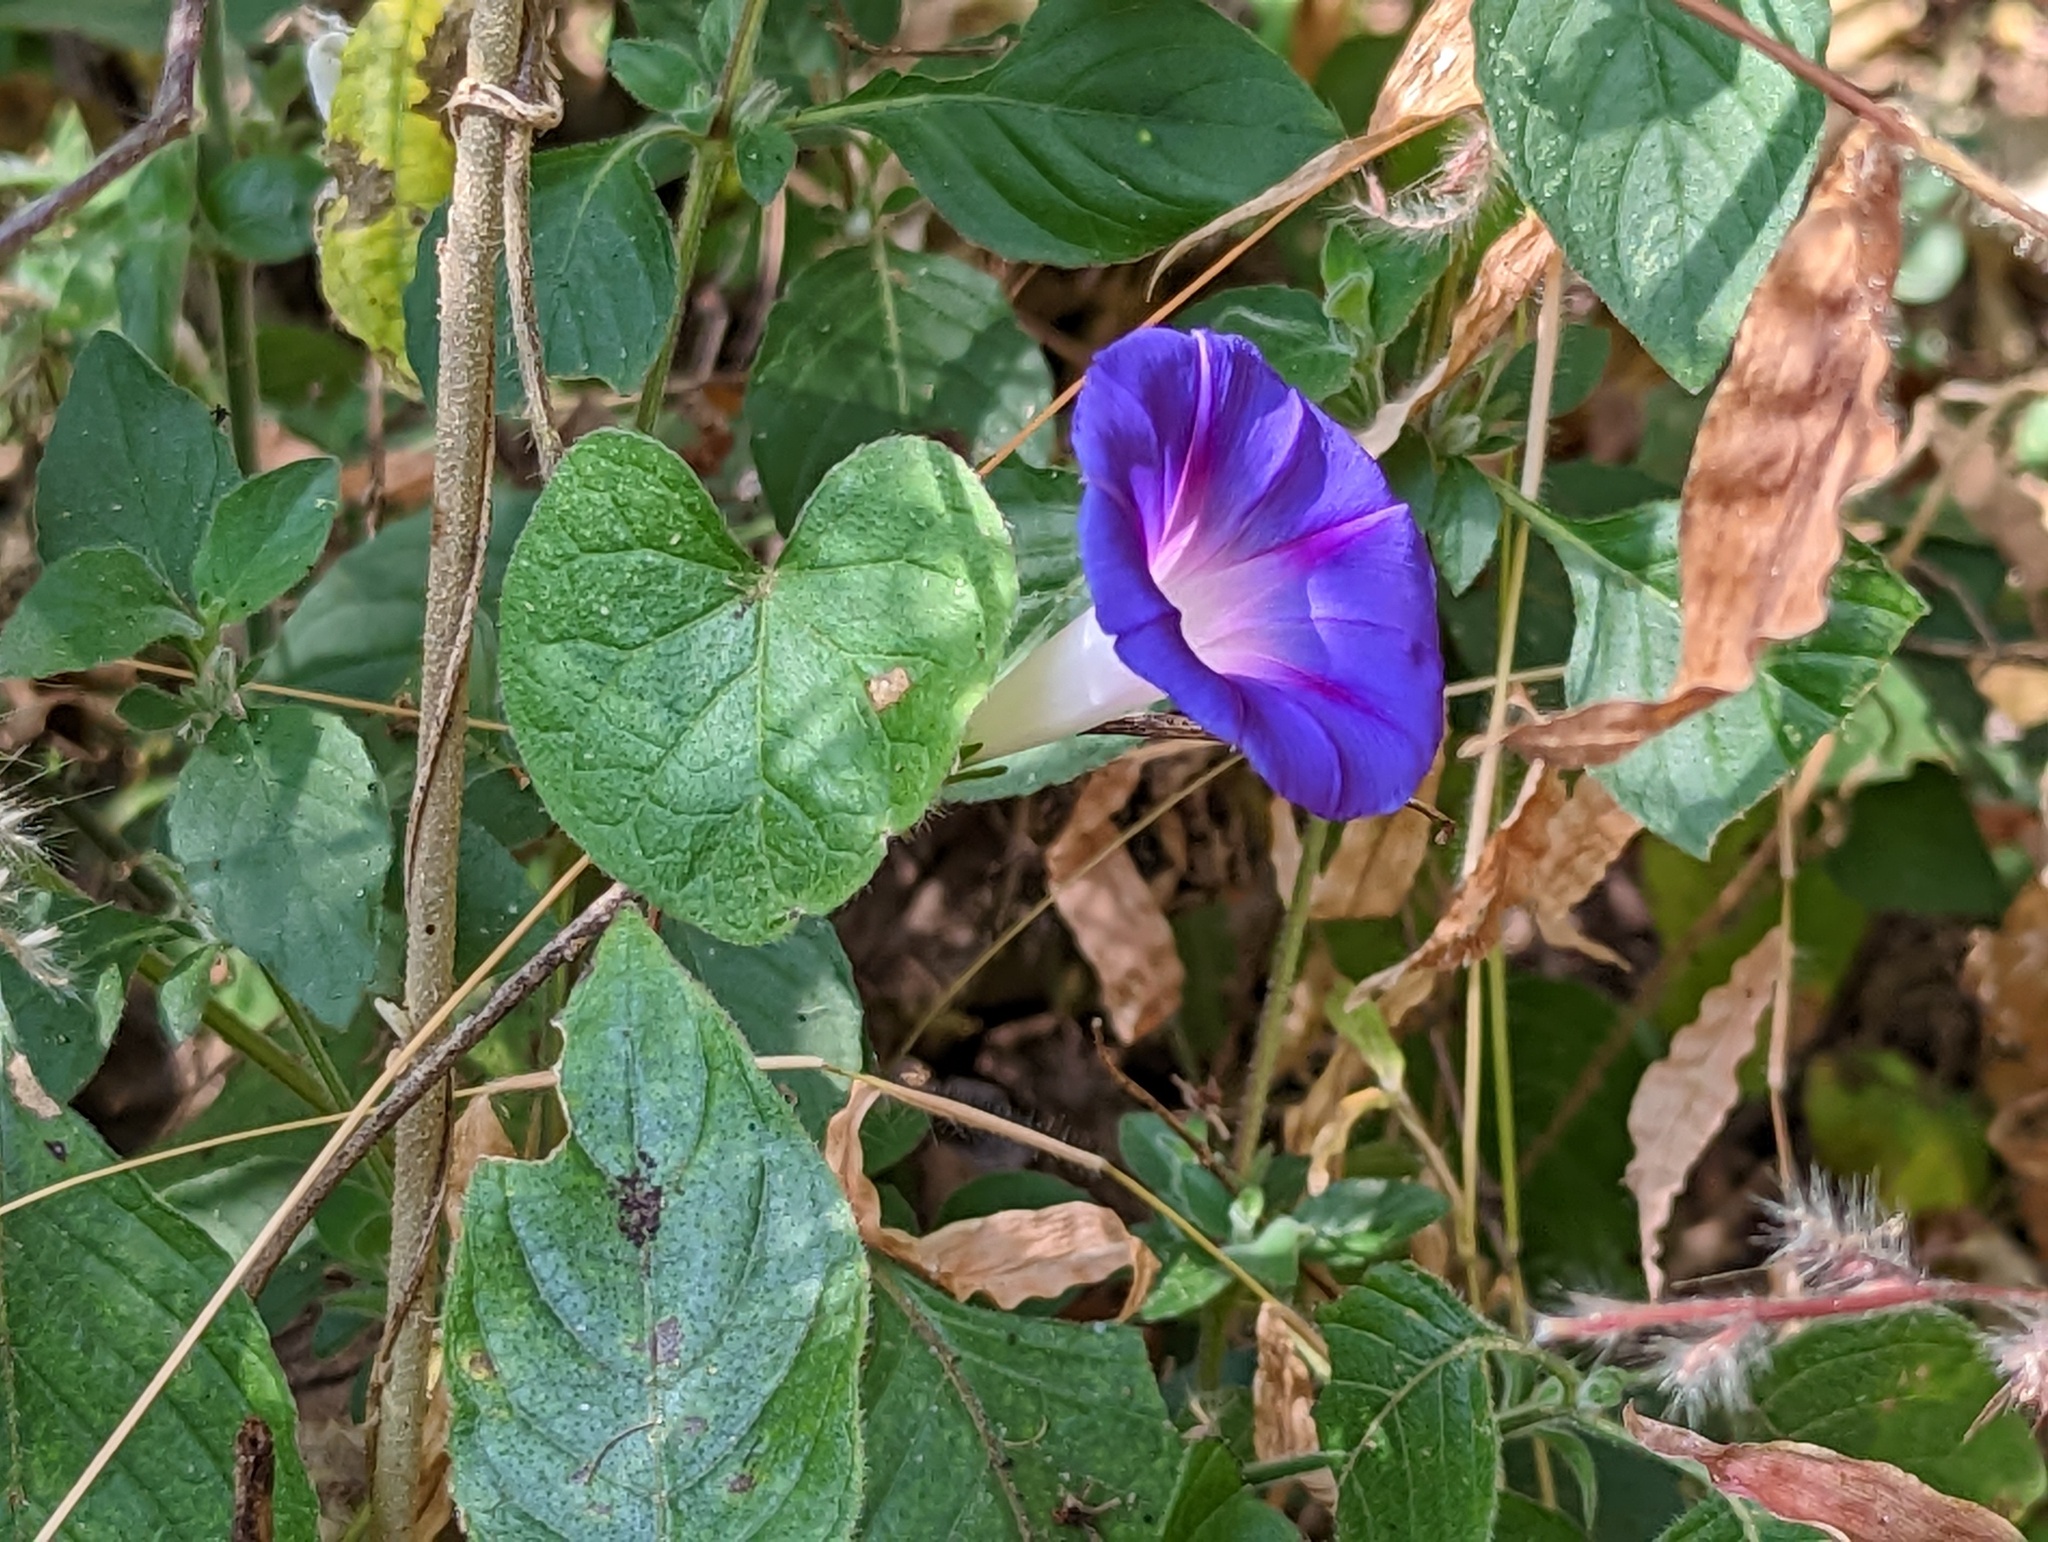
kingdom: Plantae
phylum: Tracheophyta
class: Magnoliopsida
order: Solanales
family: Convolvulaceae
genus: Ipomoea
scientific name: Ipomoea purpurea
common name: Common morning-glory
